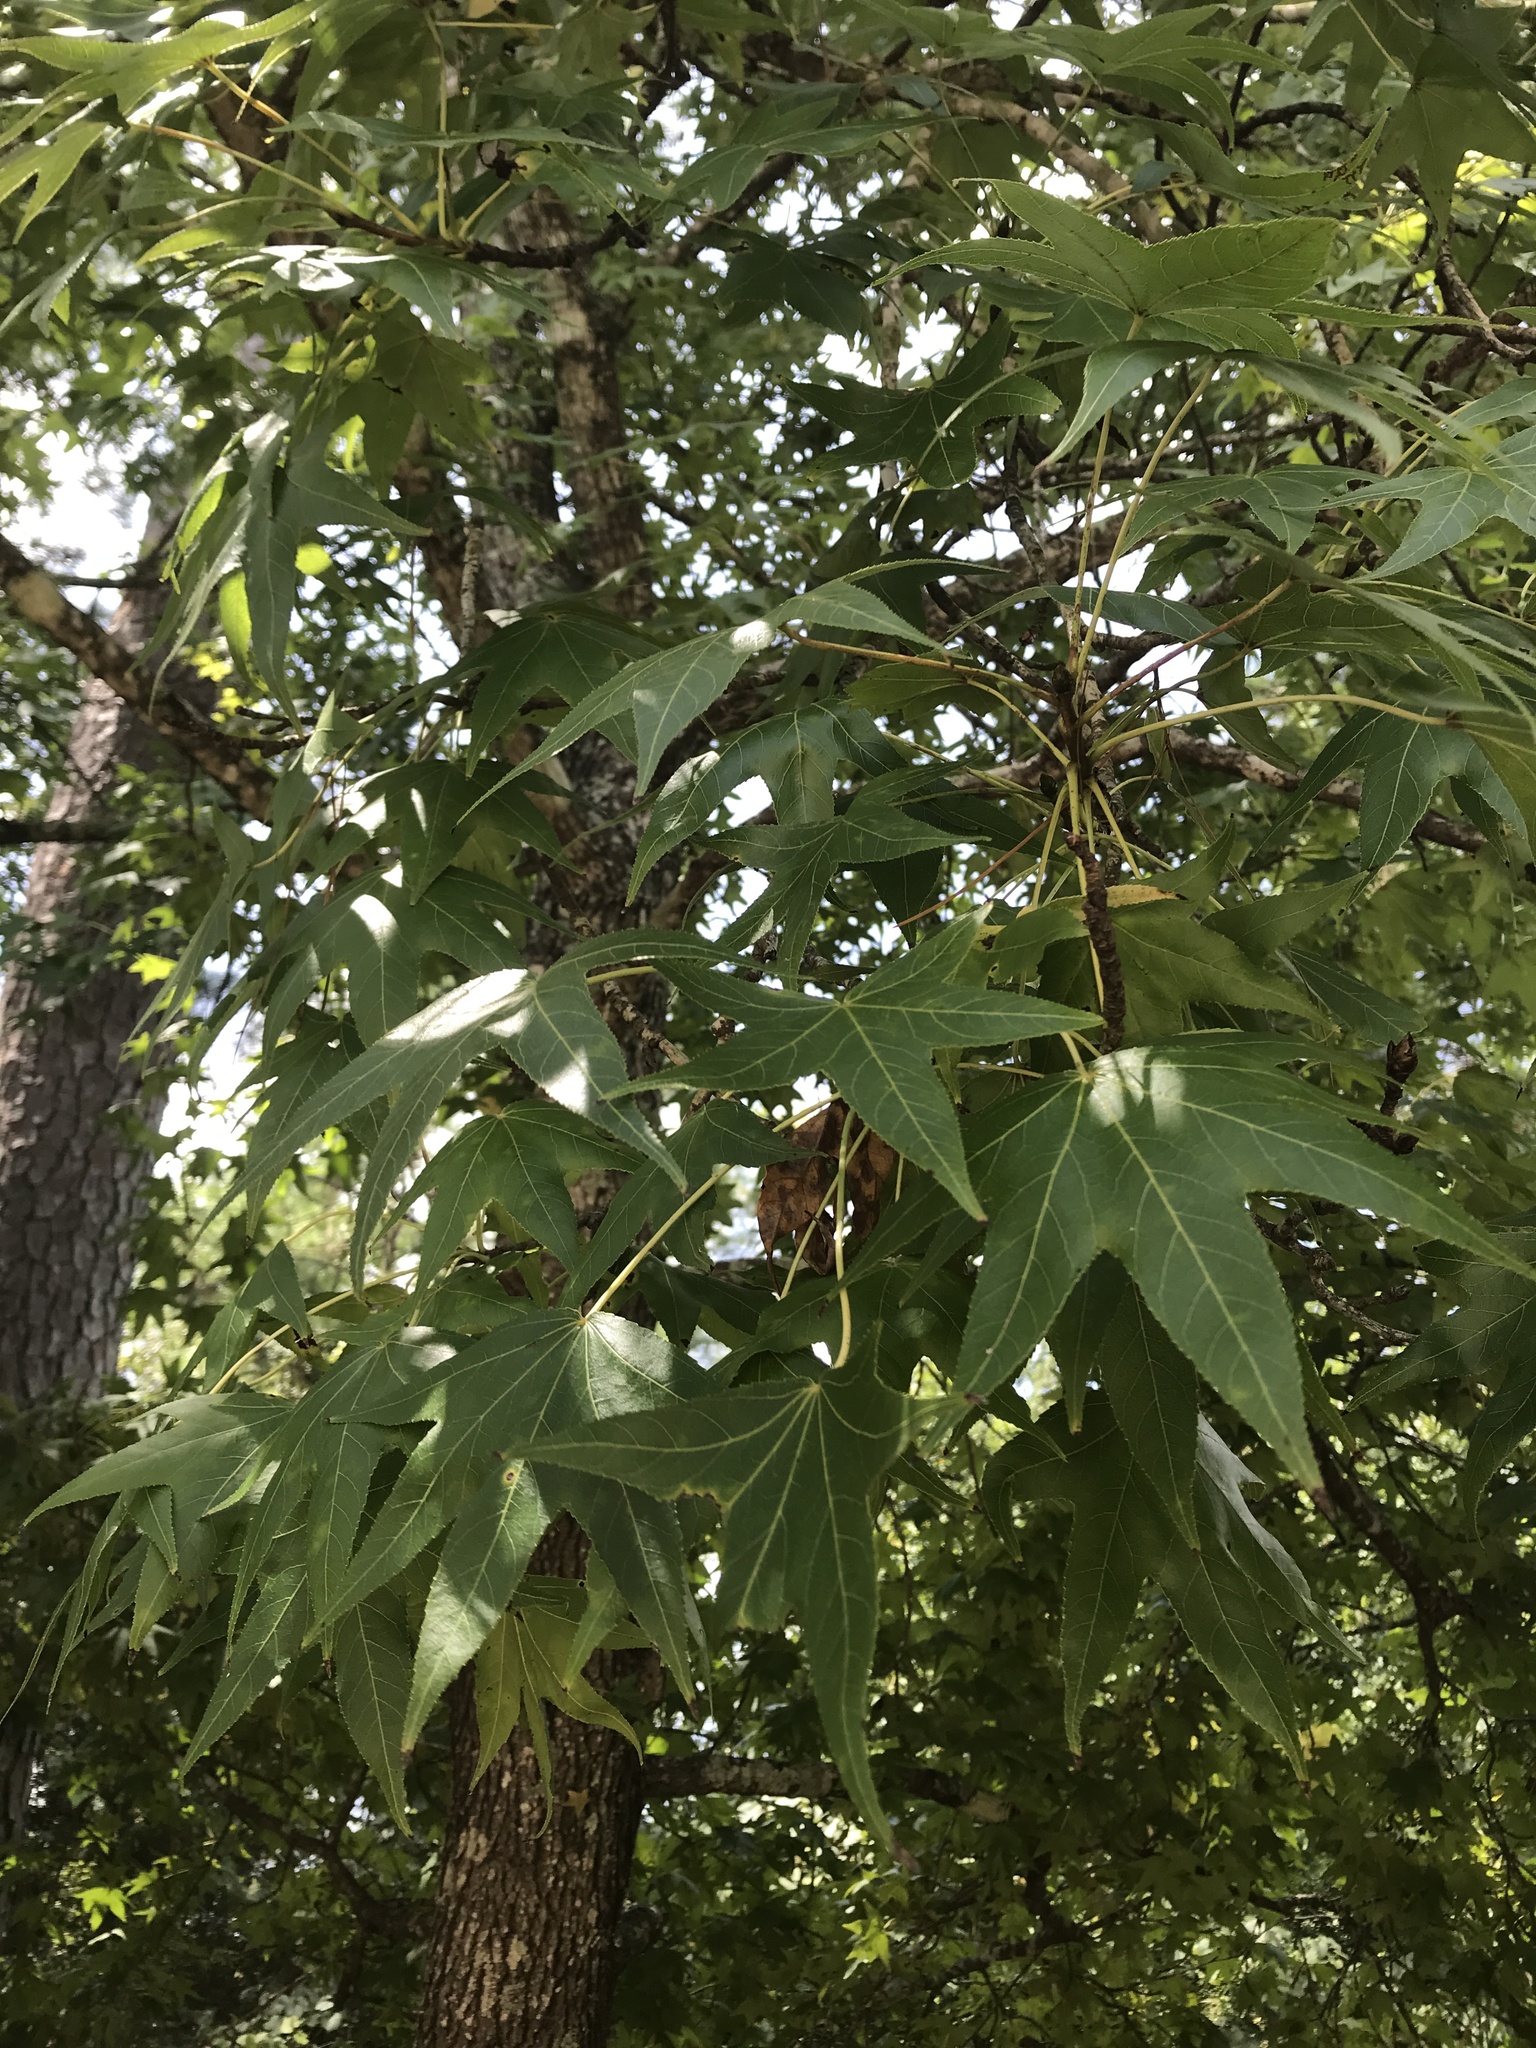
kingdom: Plantae
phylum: Tracheophyta
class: Magnoliopsida
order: Saxifragales
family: Altingiaceae
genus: Liquidambar
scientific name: Liquidambar styraciflua
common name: Sweet gum
